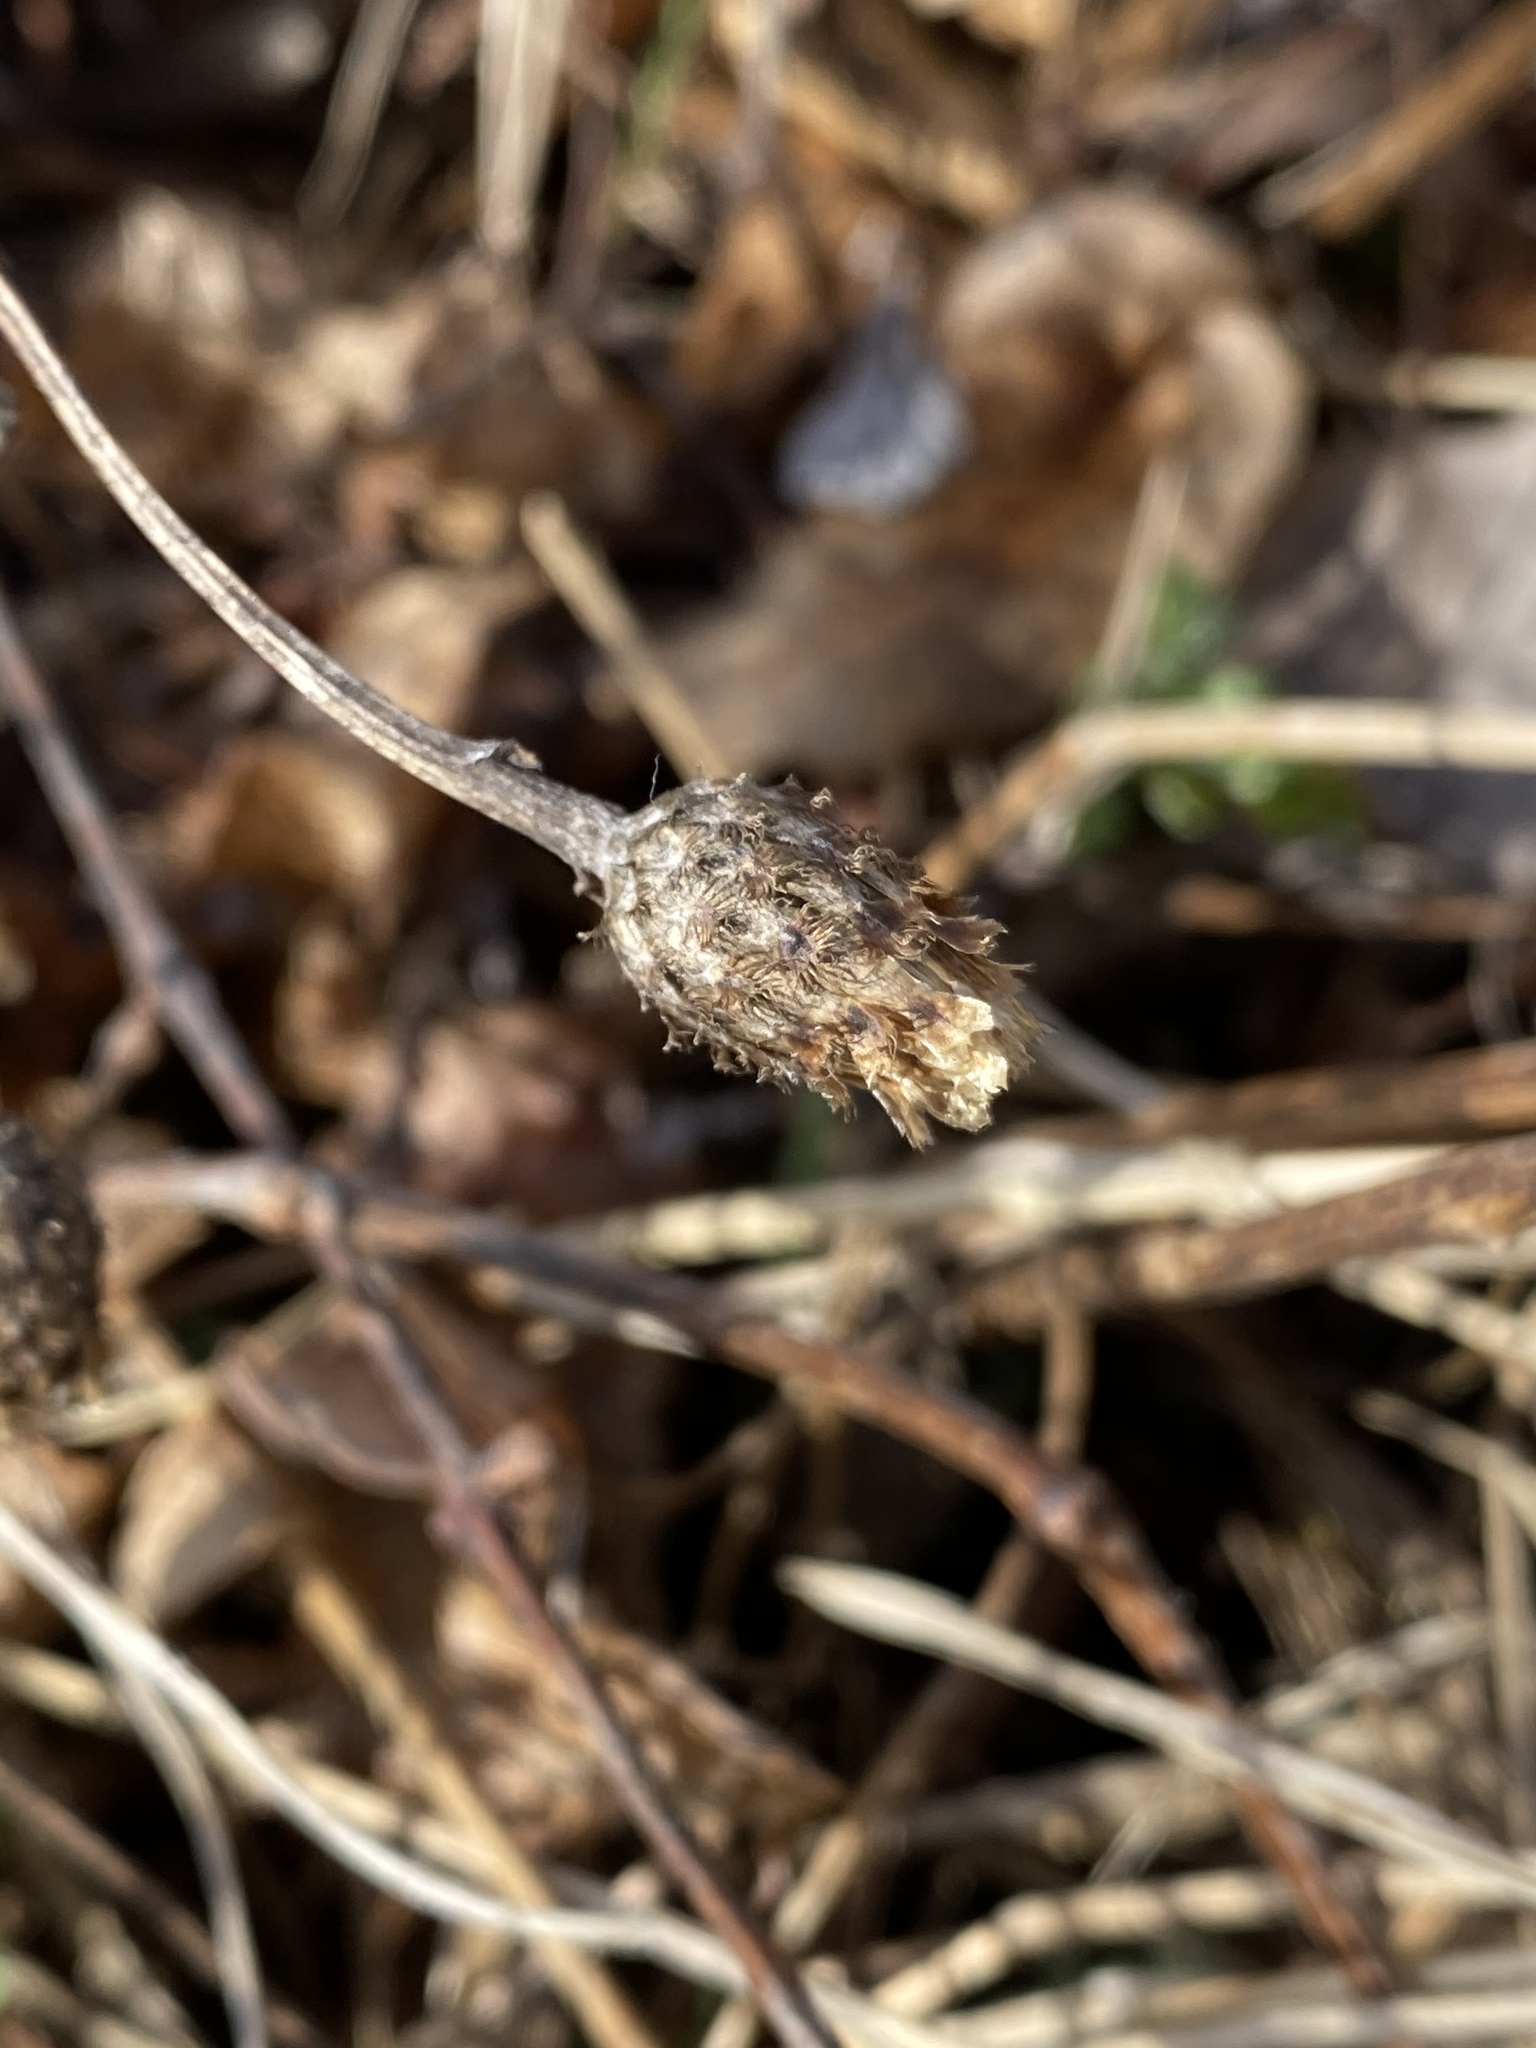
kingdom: Plantae
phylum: Tracheophyta
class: Magnoliopsida
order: Asterales
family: Asteraceae
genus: Centaurea
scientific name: Centaurea nigrescens
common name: Tyrol knapweed
